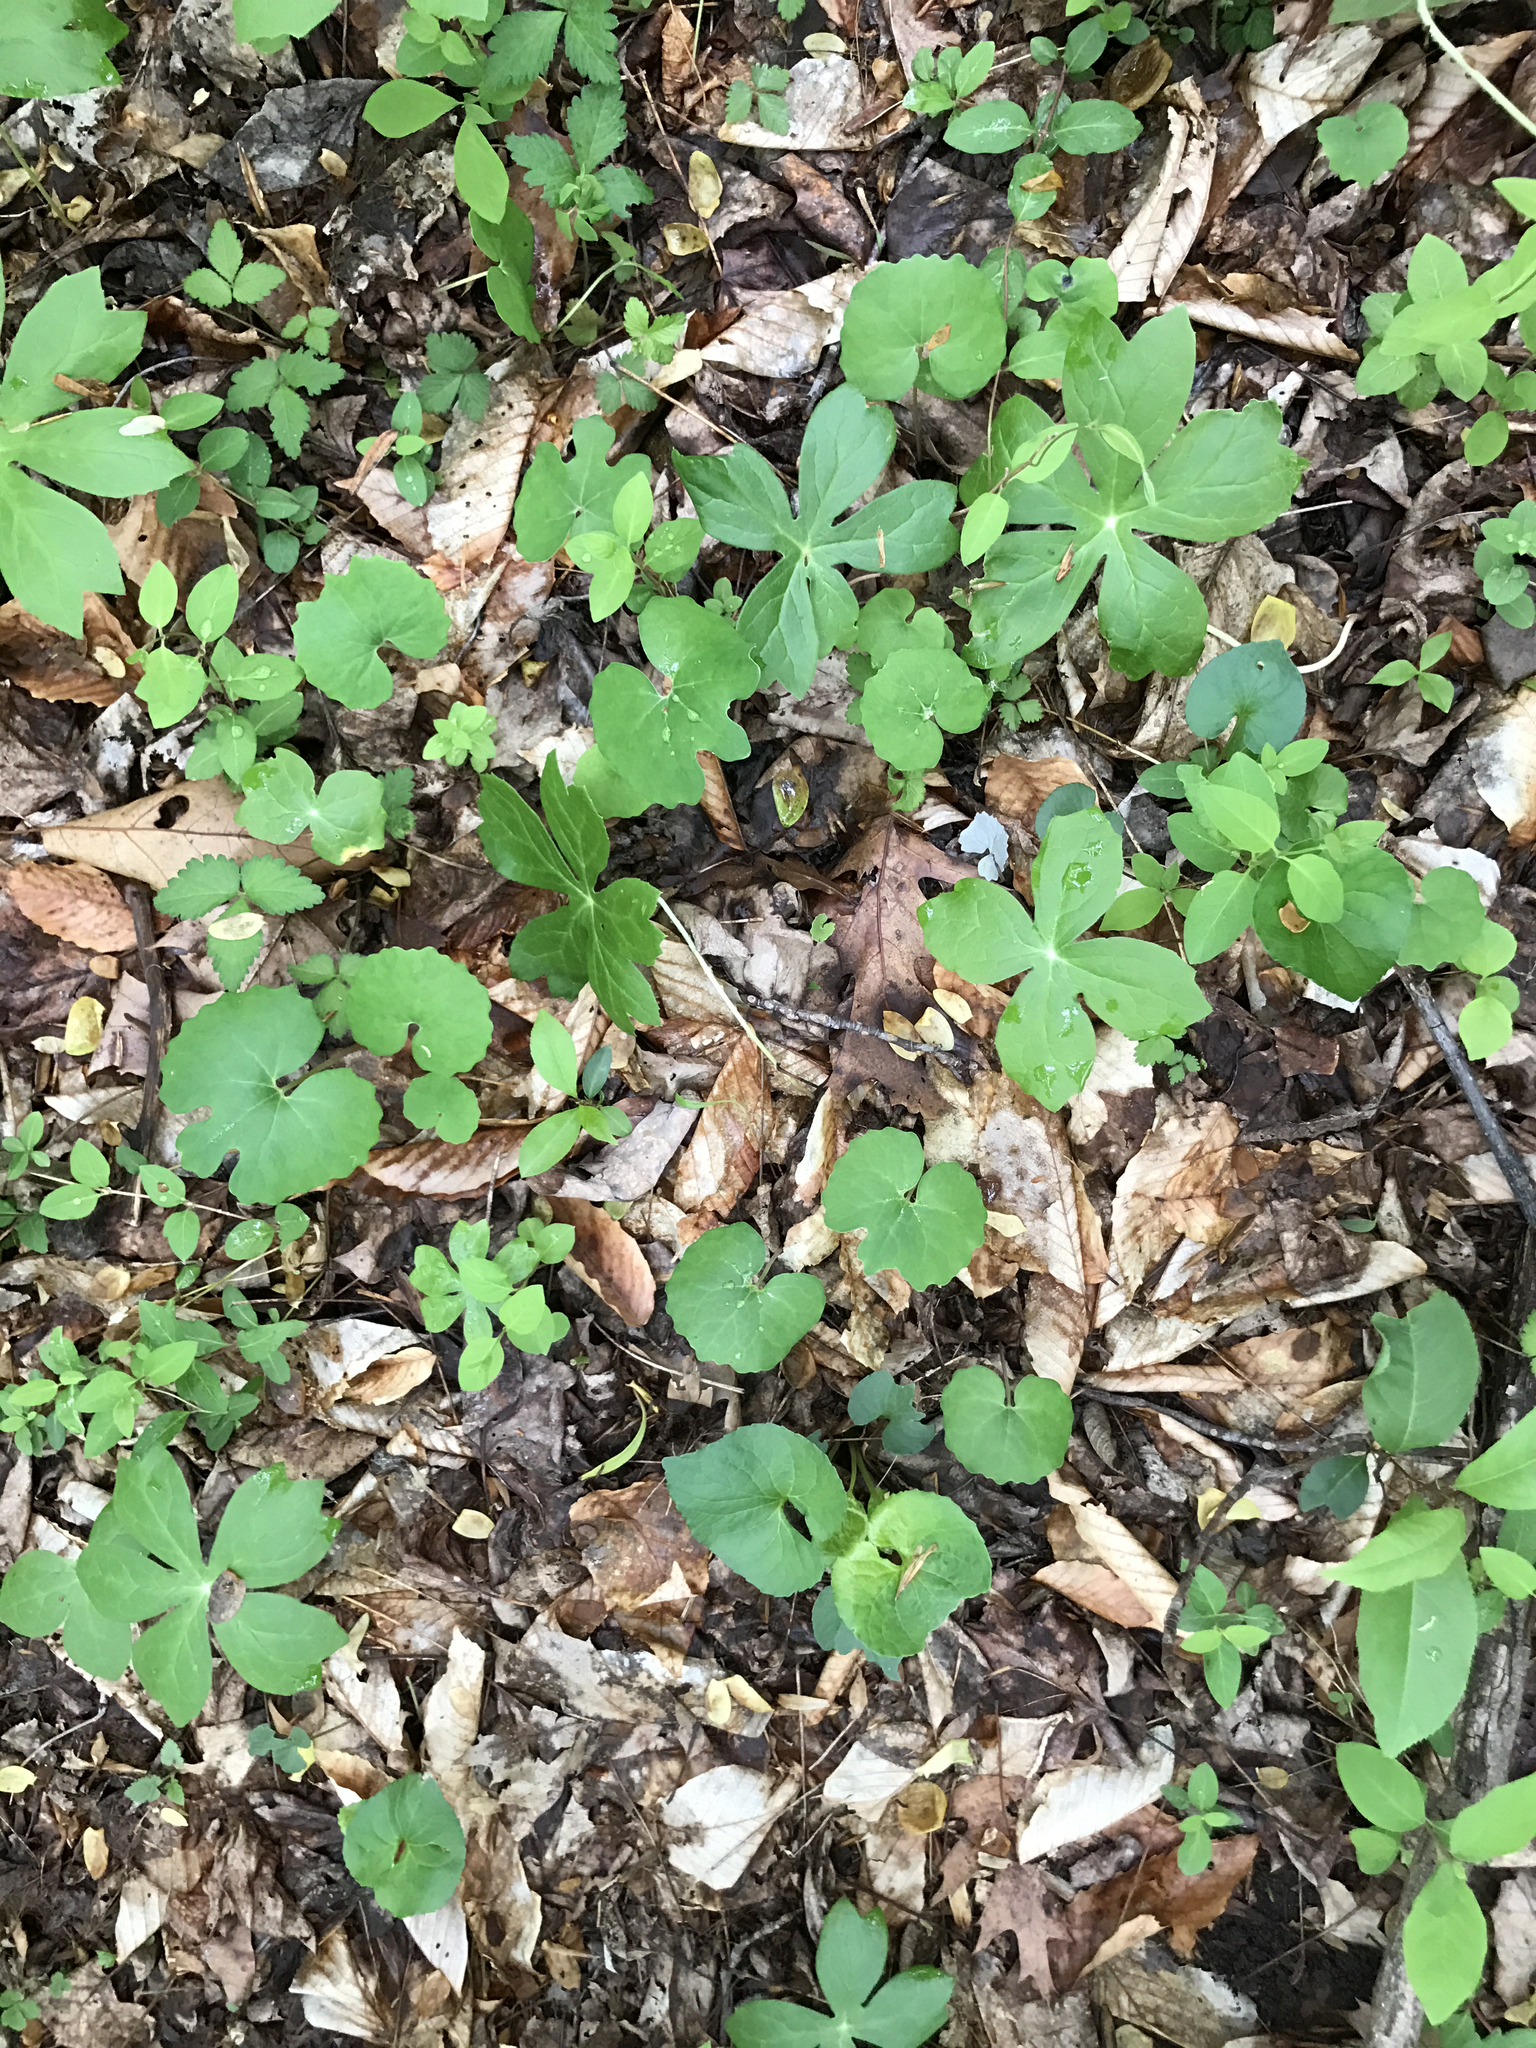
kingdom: Plantae
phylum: Tracheophyta
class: Magnoliopsida
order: Ranunculales
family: Papaveraceae
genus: Sanguinaria
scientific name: Sanguinaria canadensis
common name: Bloodroot
